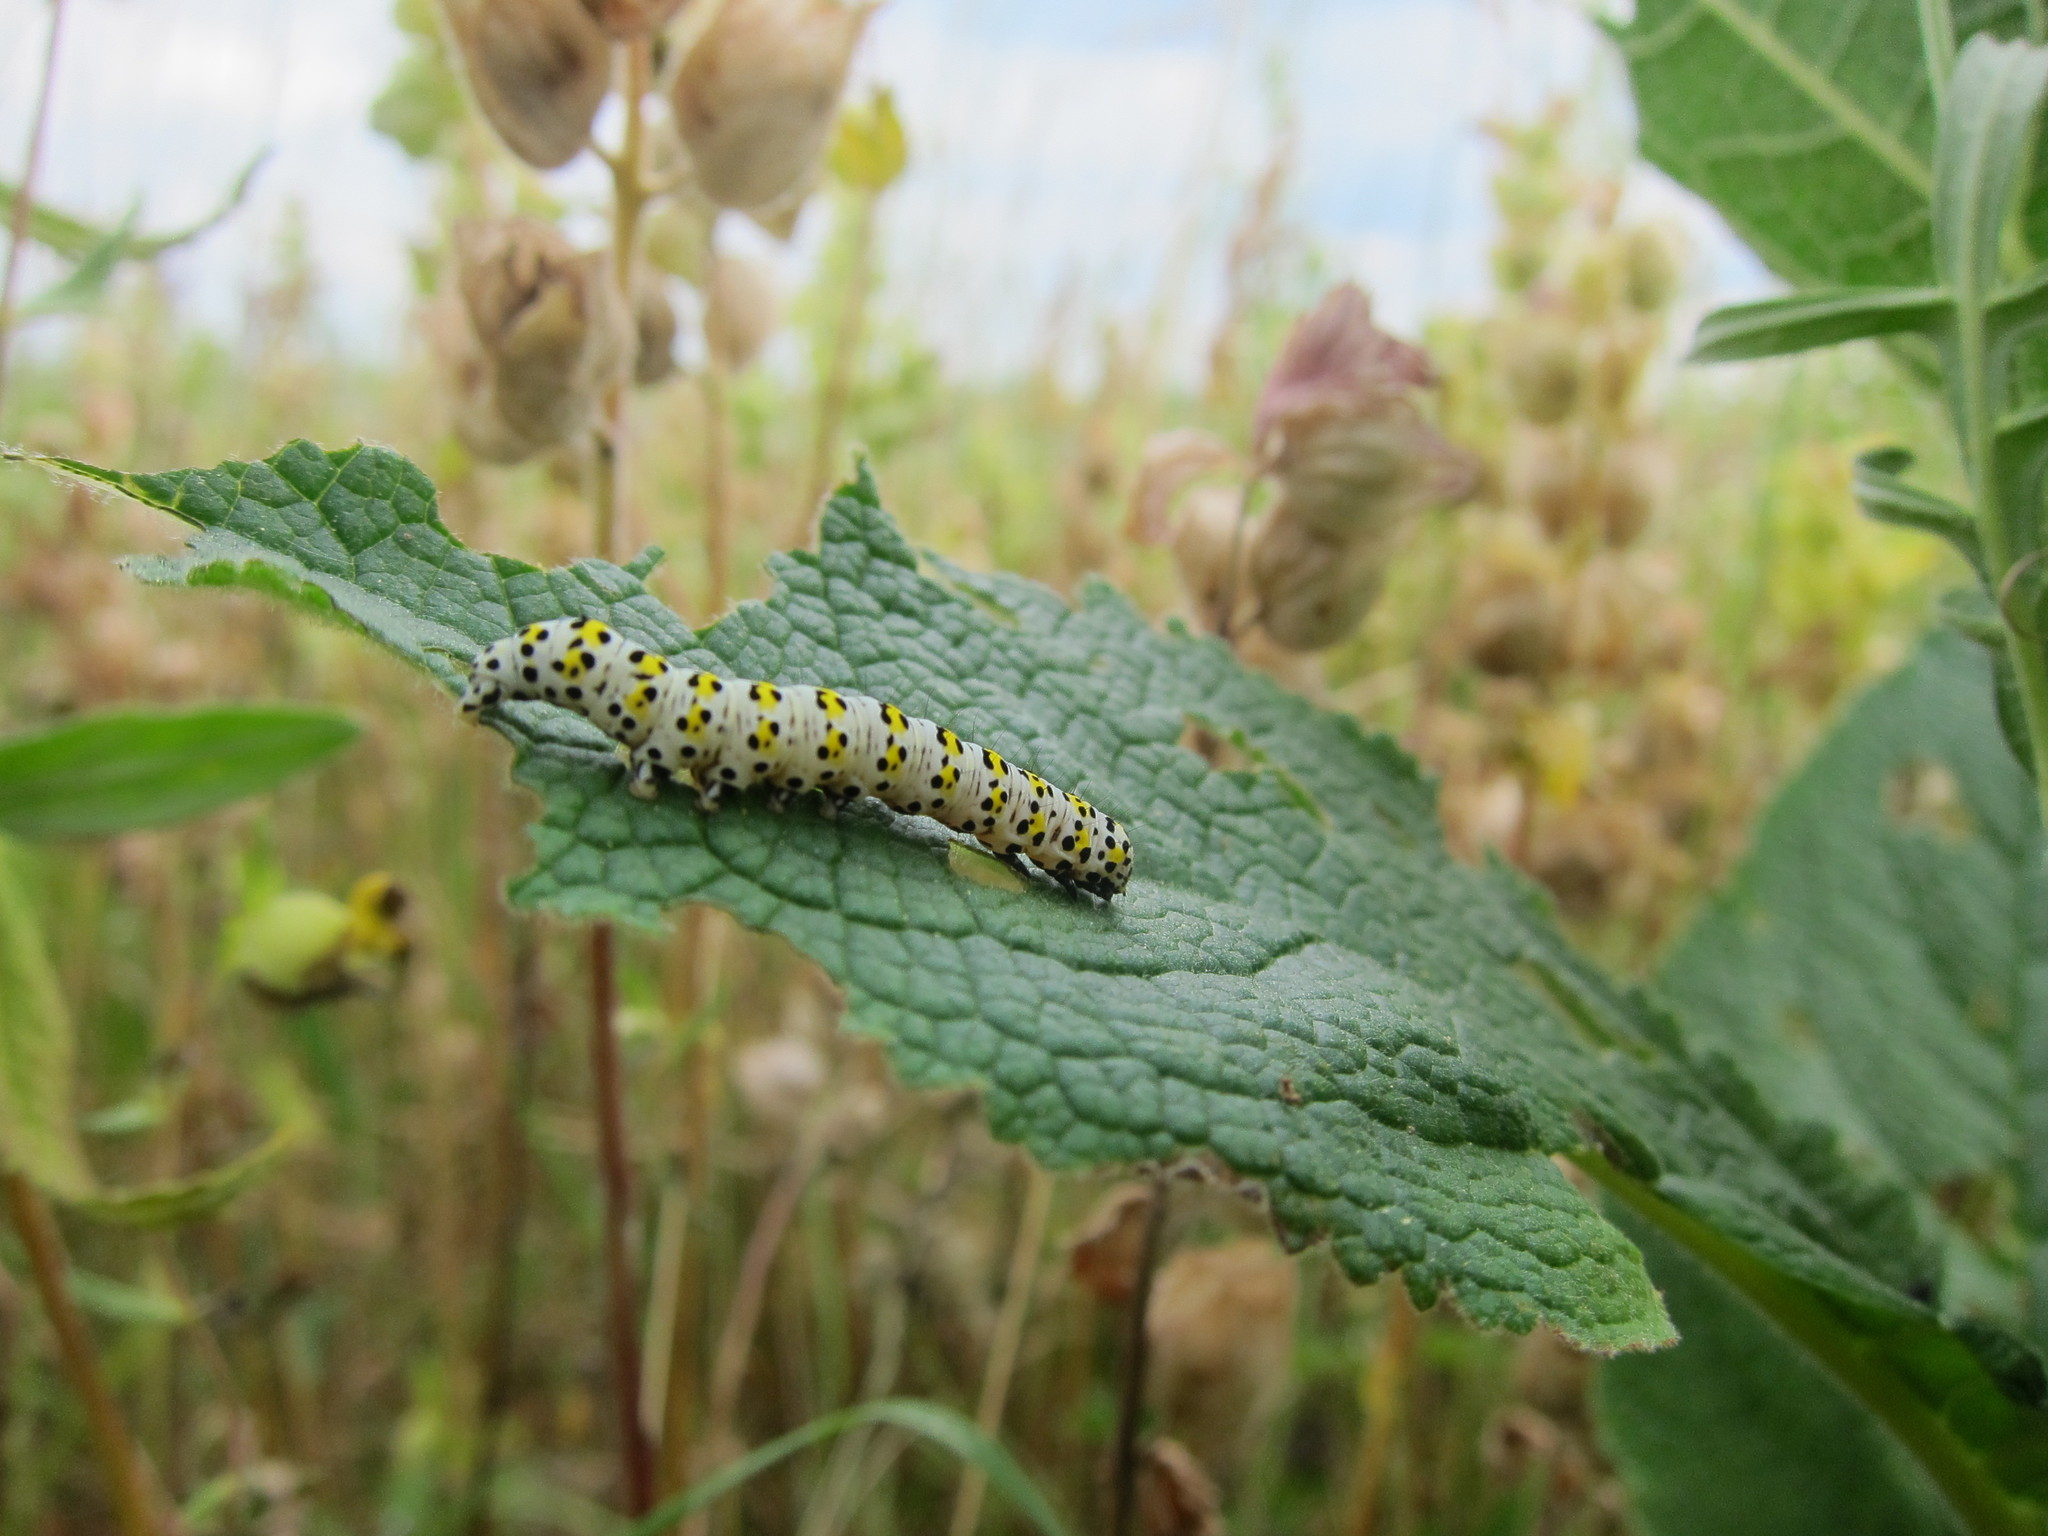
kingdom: Animalia
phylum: Arthropoda
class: Insecta
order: Lepidoptera
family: Noctuidae
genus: Cucullia
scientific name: Cucullia verbasci
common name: Mullein
